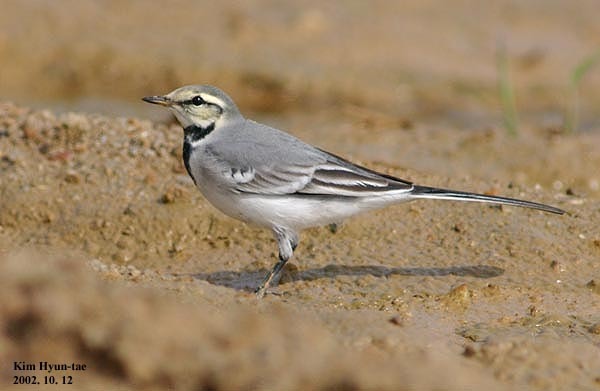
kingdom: Animalia
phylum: Chordata
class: Aves
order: Passeriformes
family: Motacillidae
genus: Motacilla
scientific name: Motacilla alba
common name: White wagtail
